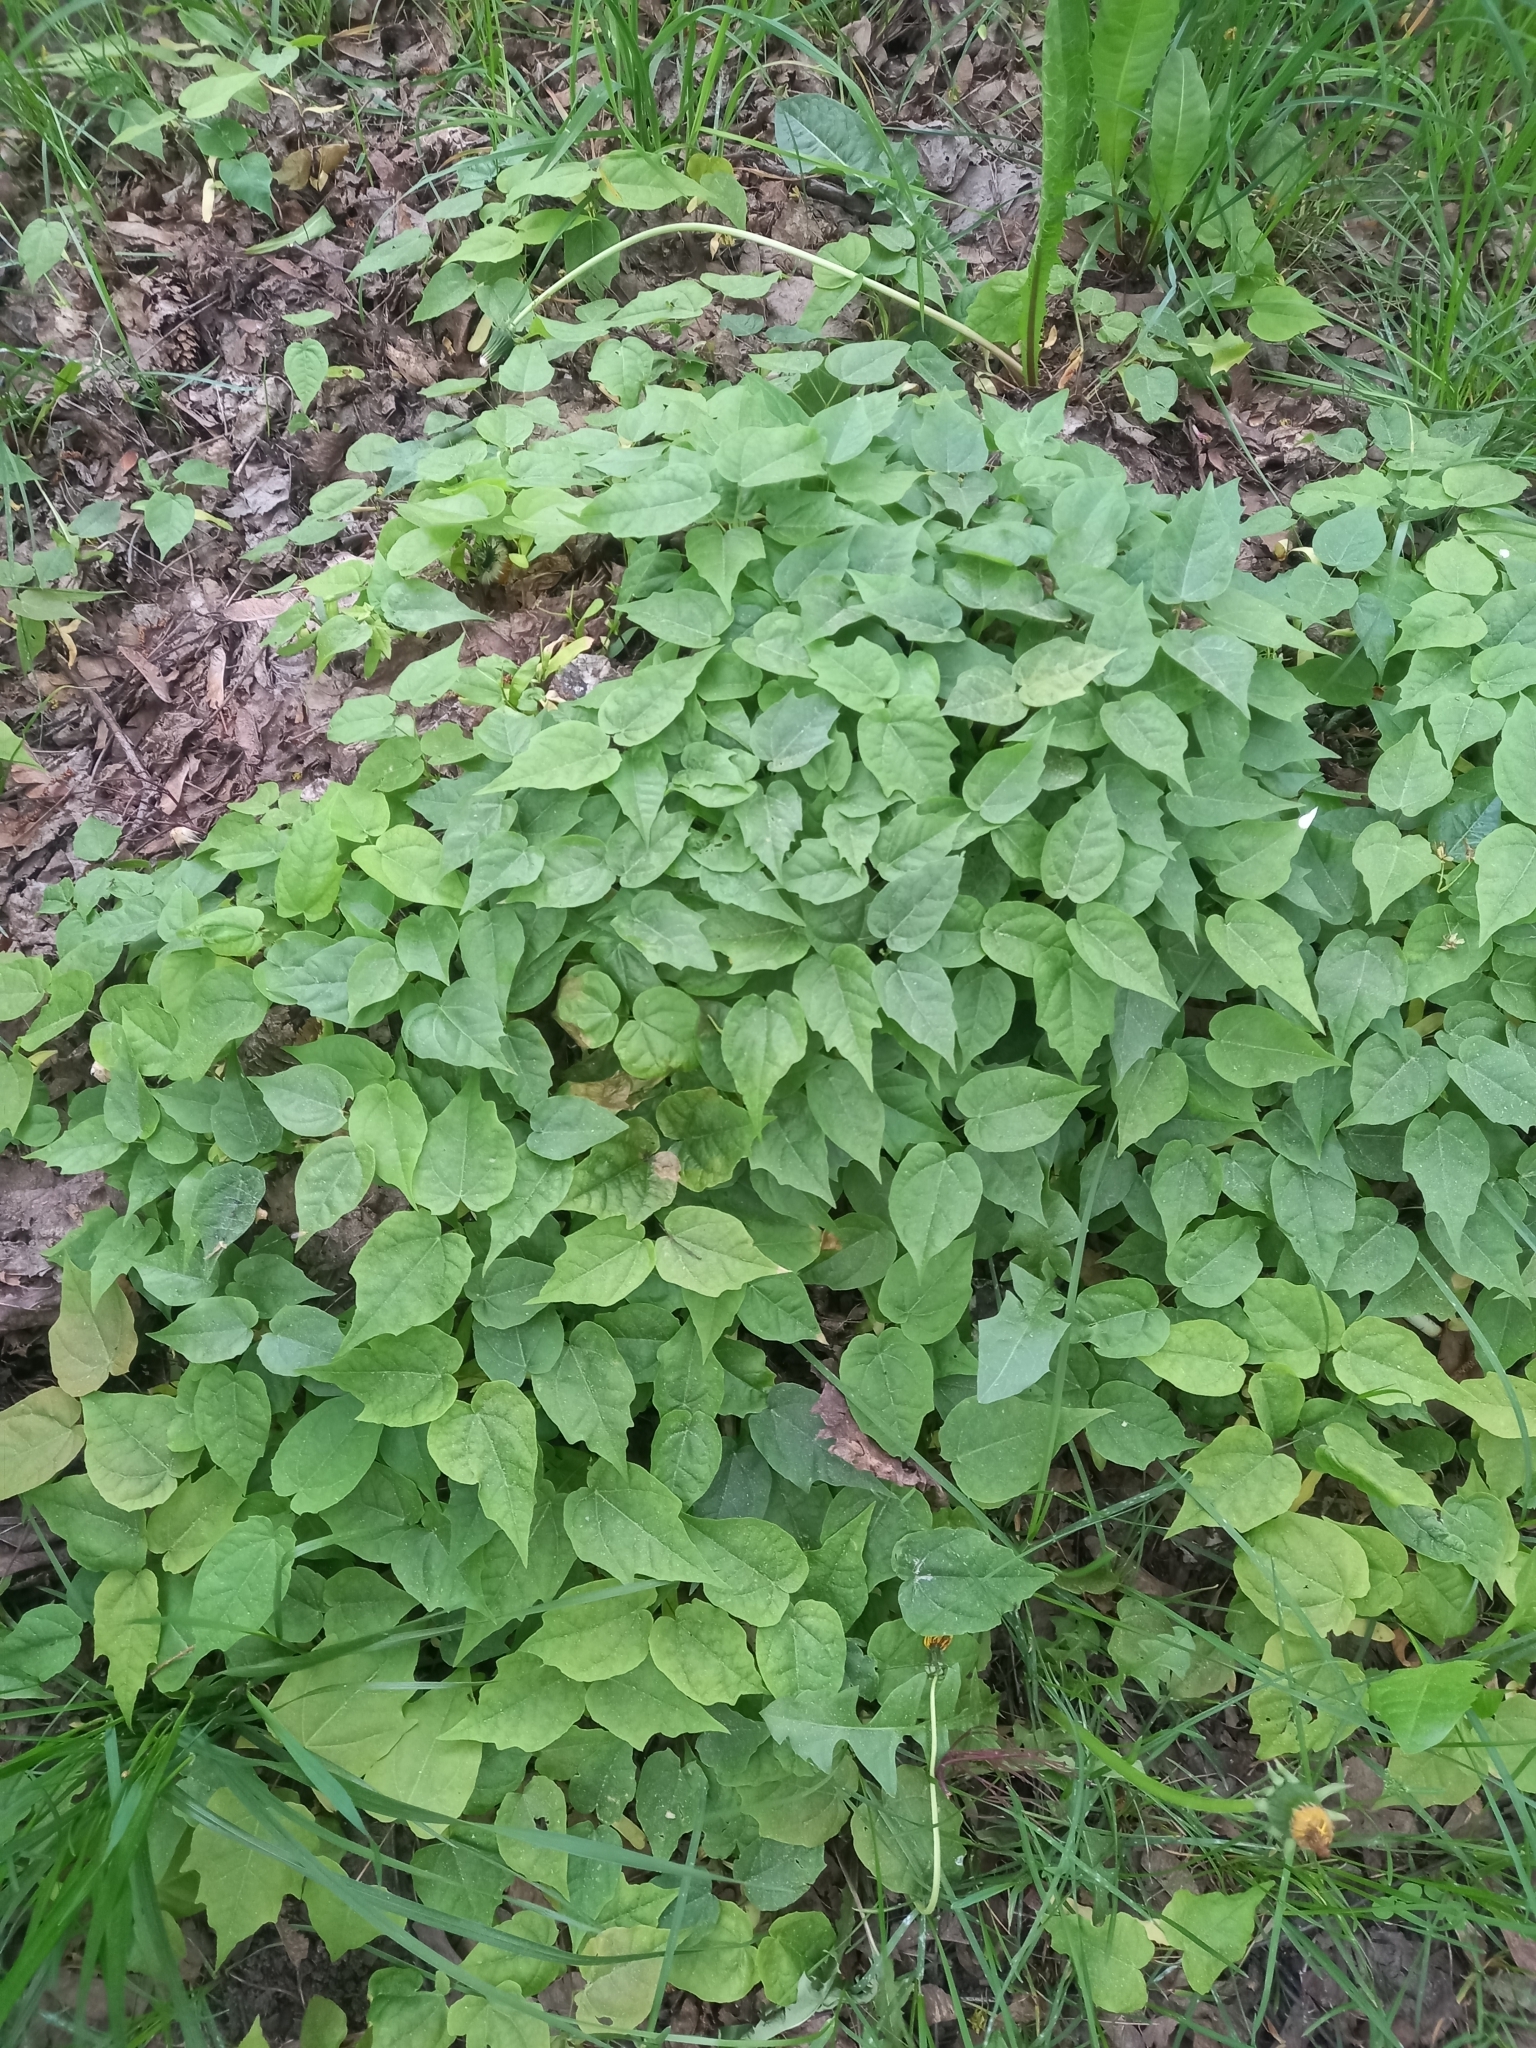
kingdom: Plantae
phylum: Tracheophyta
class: Magnoliopsida
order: Sapindales
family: Sapindaceae
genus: Acer
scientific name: Acer platanoides
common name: Norway maple
